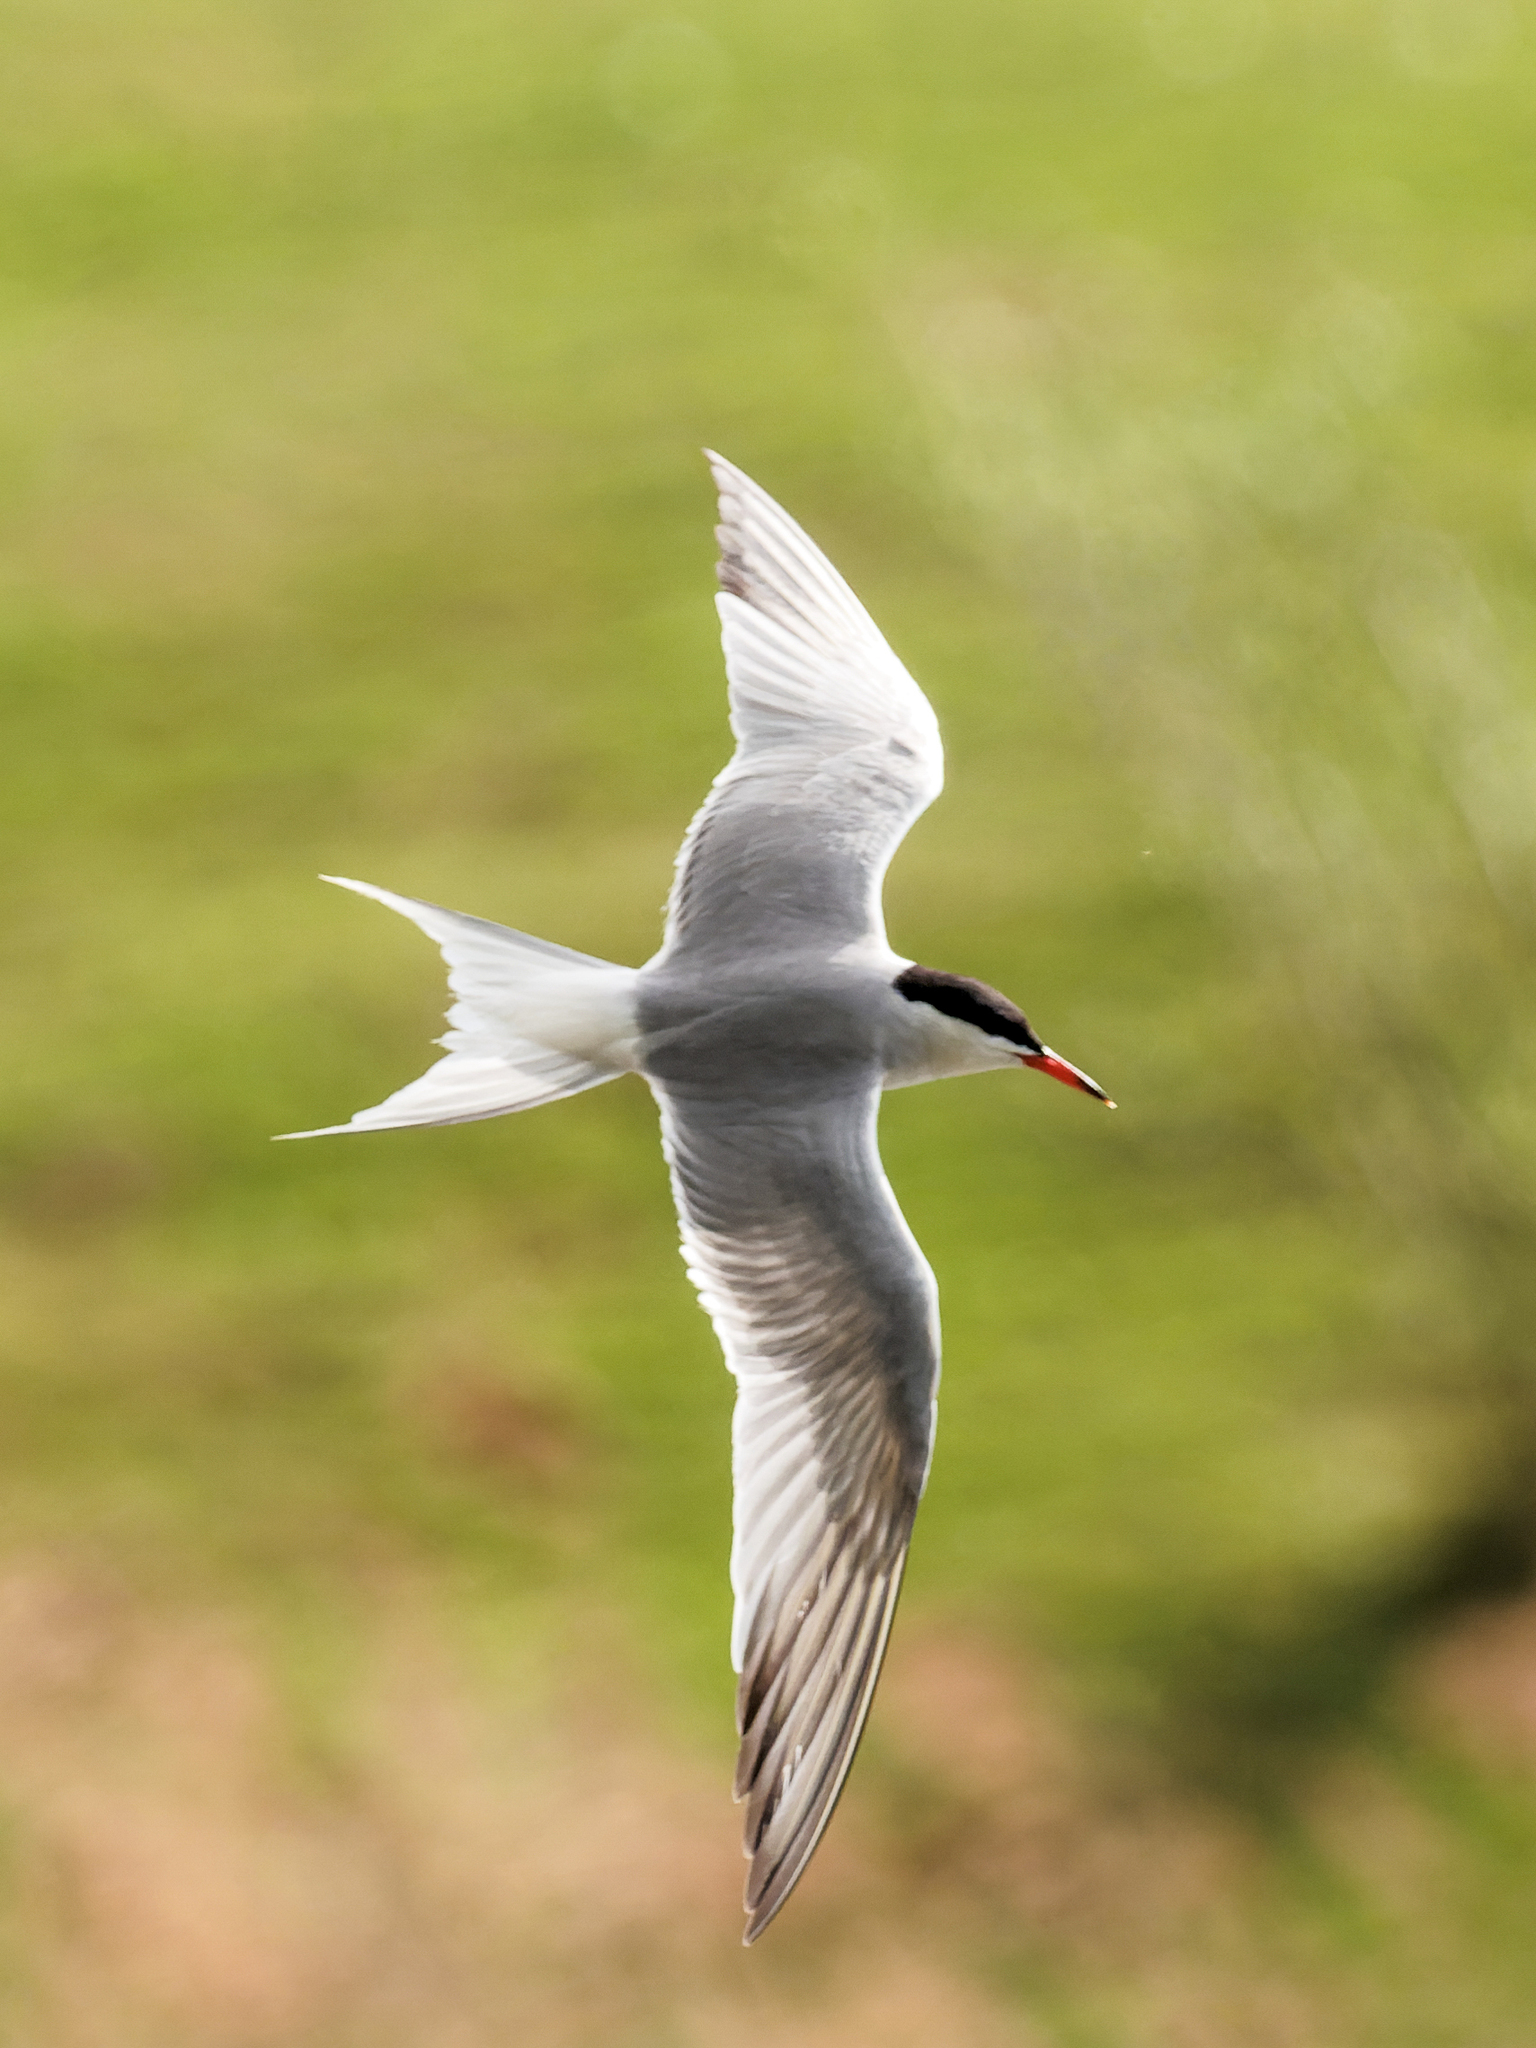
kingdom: Animalia
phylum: Chordata
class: Aves
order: Charadriiformes
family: Laridae
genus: Sterna
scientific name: Sterna hirundo
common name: Common tern
